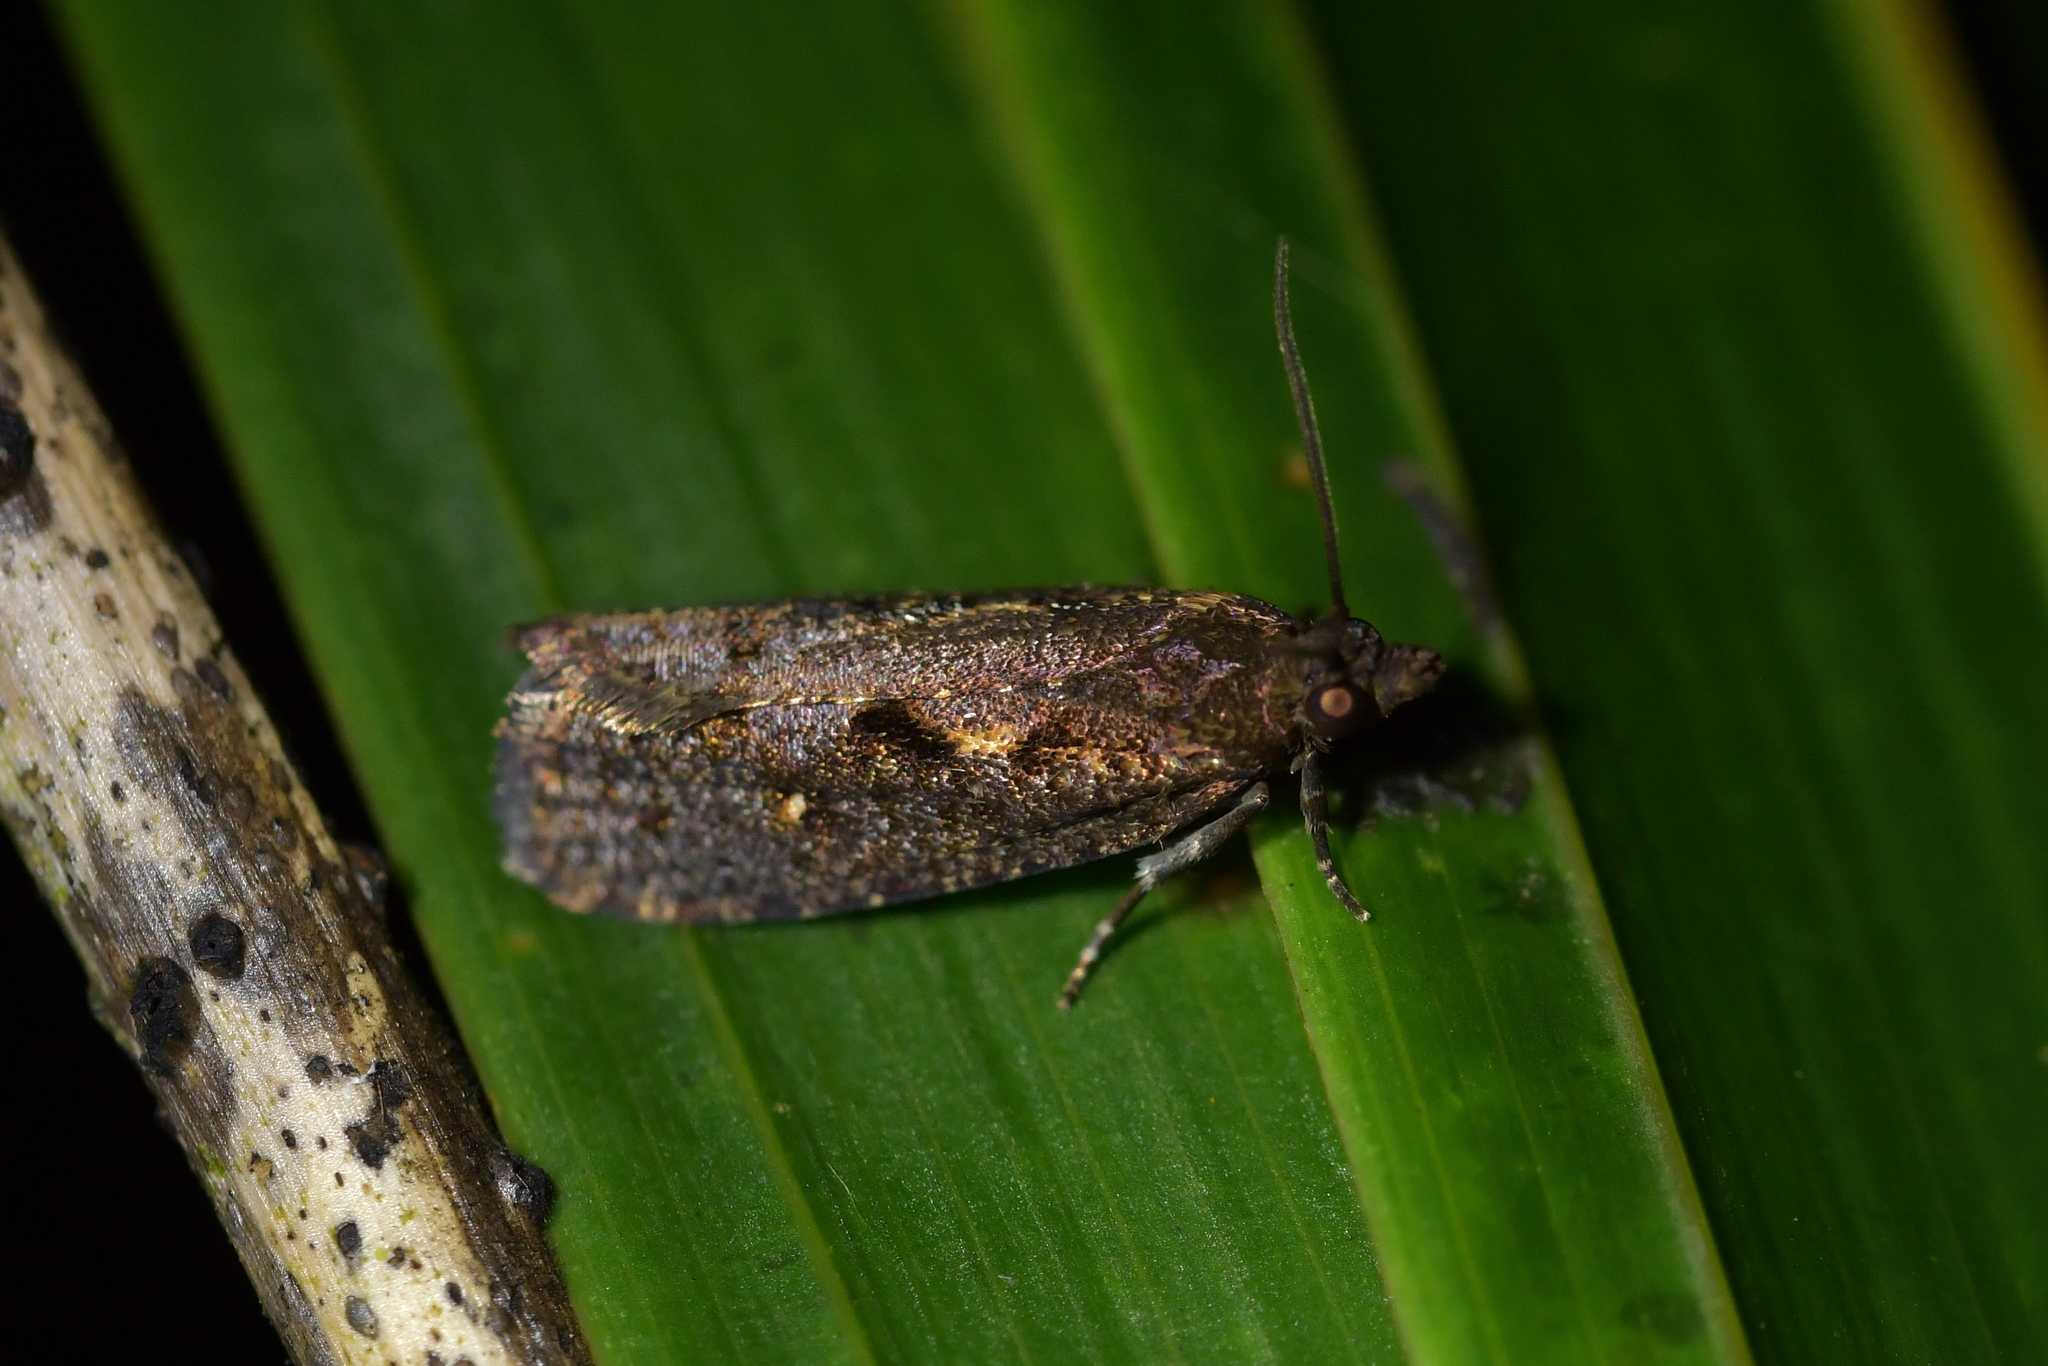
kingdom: Animalia
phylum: Arthropoda
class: Insecta
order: Lepidoptera
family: Tortricidae
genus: Cryptaspasma
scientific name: Cryptaspasma querula
